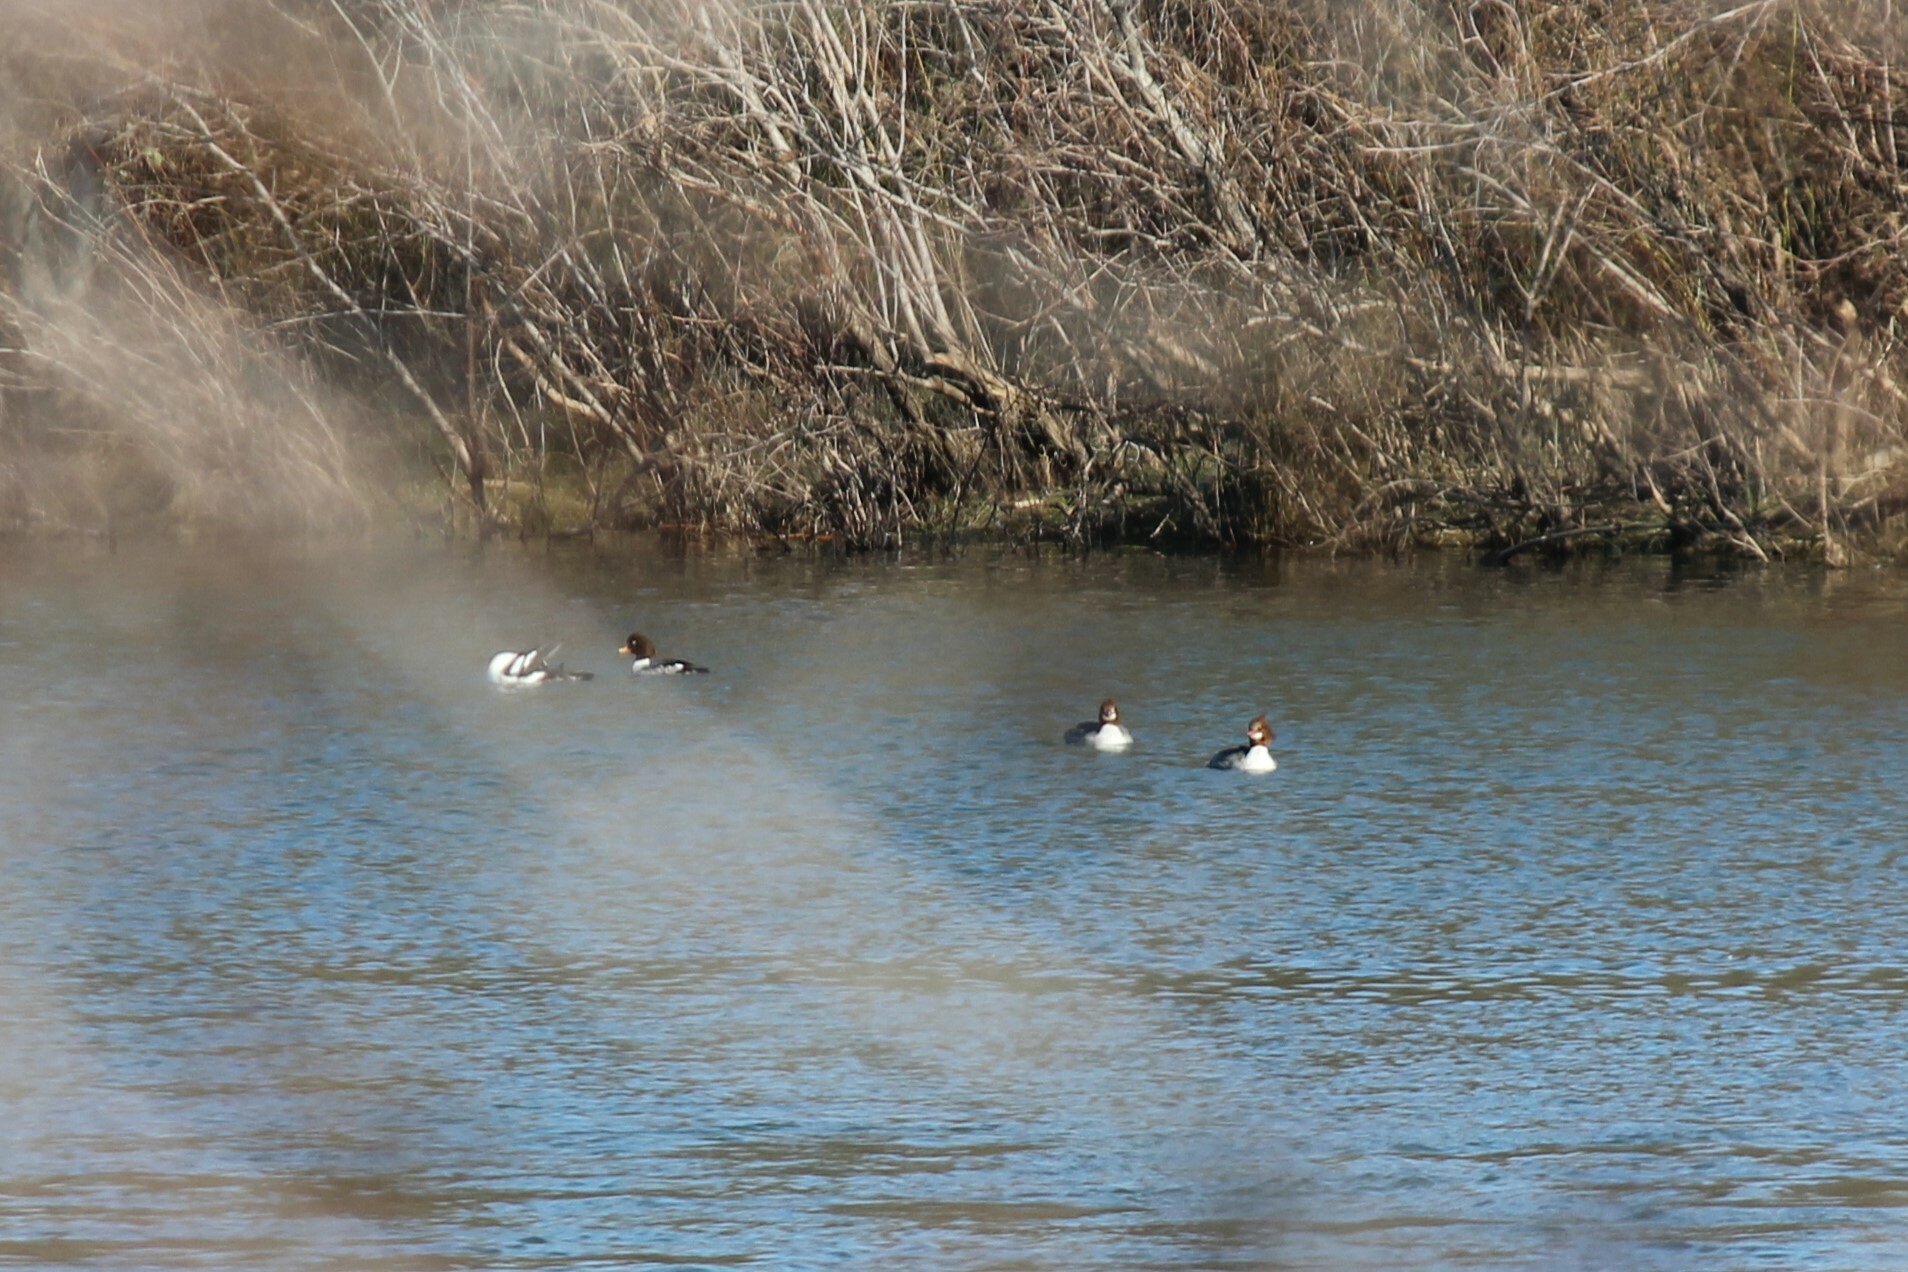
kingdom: Animalia
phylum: Chordata
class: Aves
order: Anseriformes
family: Anatidae
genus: Mergus
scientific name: Mergus merganser
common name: Common merganser
